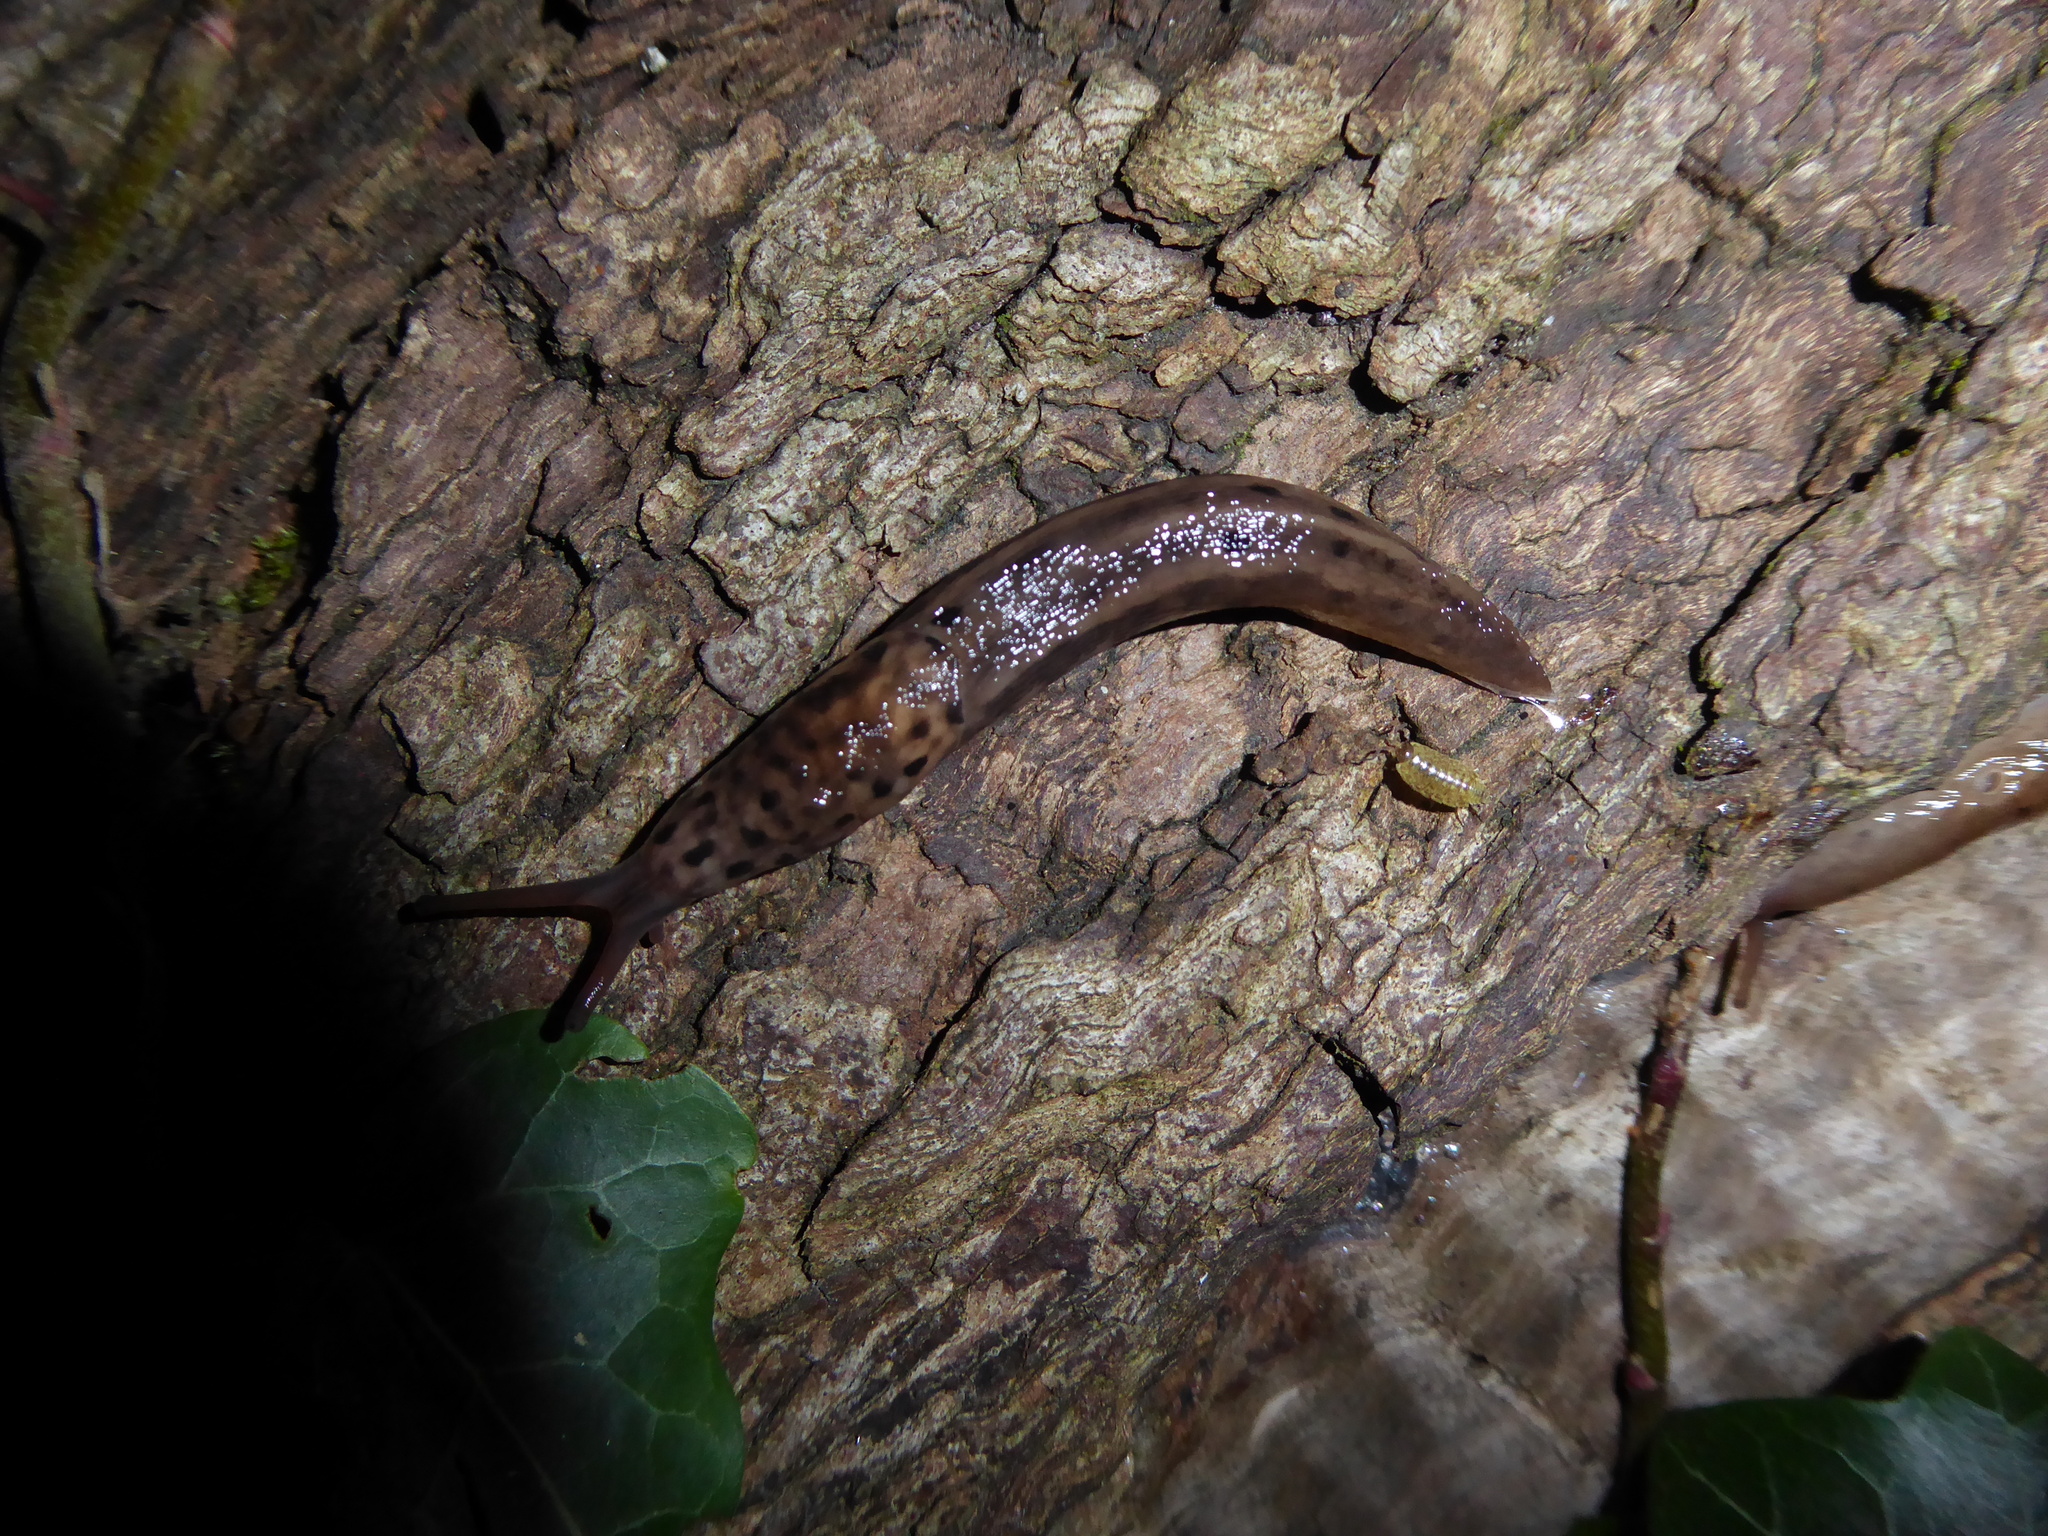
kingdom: Animalia
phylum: Mollusca
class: Gastropoda
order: Stylommatophora
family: Limacidae
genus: Limax
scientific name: Limax maximus
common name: Great grey slug
